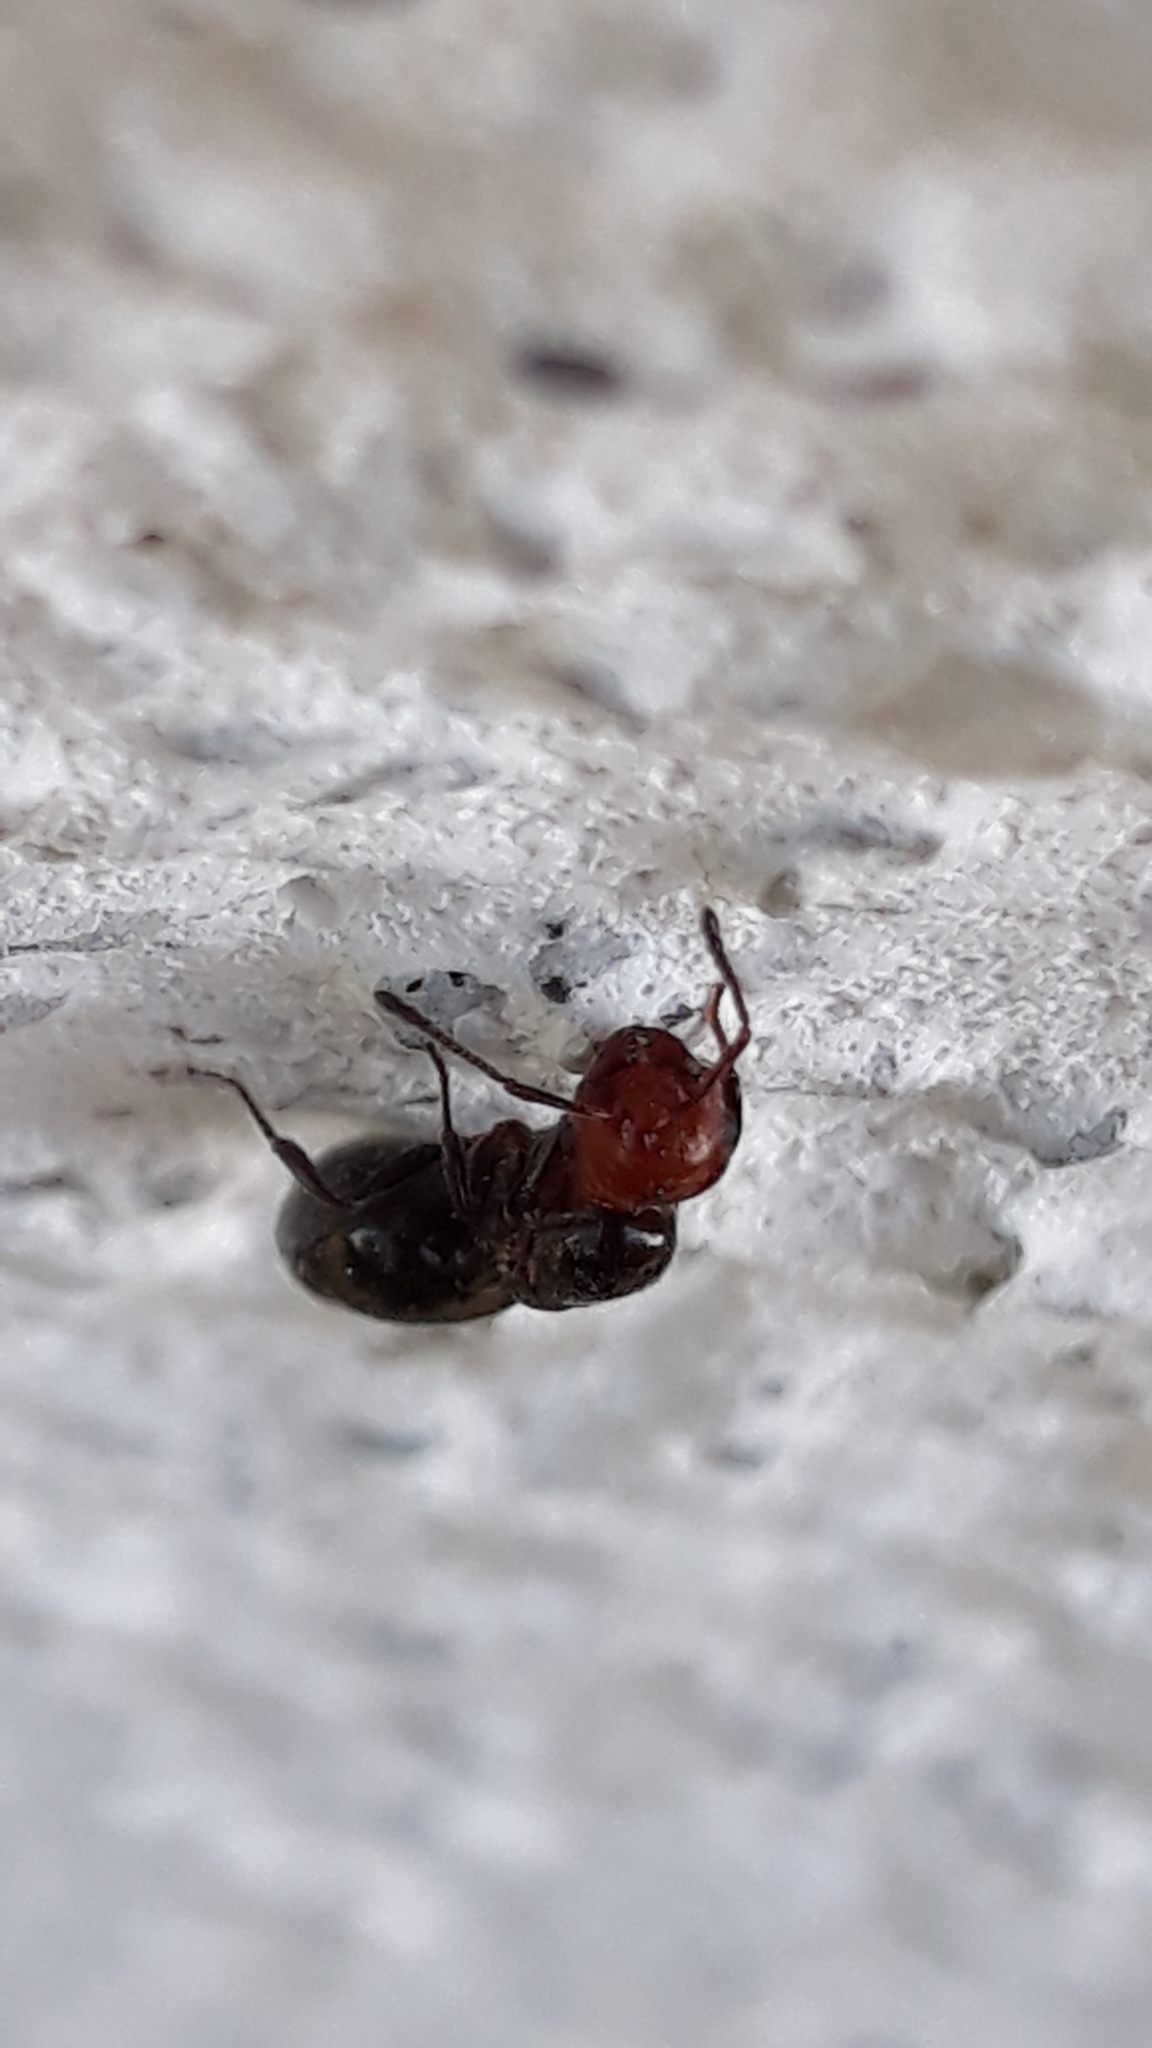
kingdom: Animalia
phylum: Arthropoda
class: Insecta
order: Hymenoptera
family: Formicidae
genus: Crematogaster
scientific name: Crematogaster scutellaris
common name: Fourmi du liège
